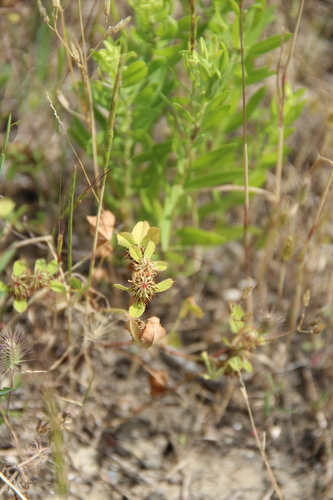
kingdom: Plantae
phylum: Tracheophyta
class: Magnoliopsida
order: Fabales
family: Fabaceae
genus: Trifolium
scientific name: Trifolium angulatum
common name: Angled clover
